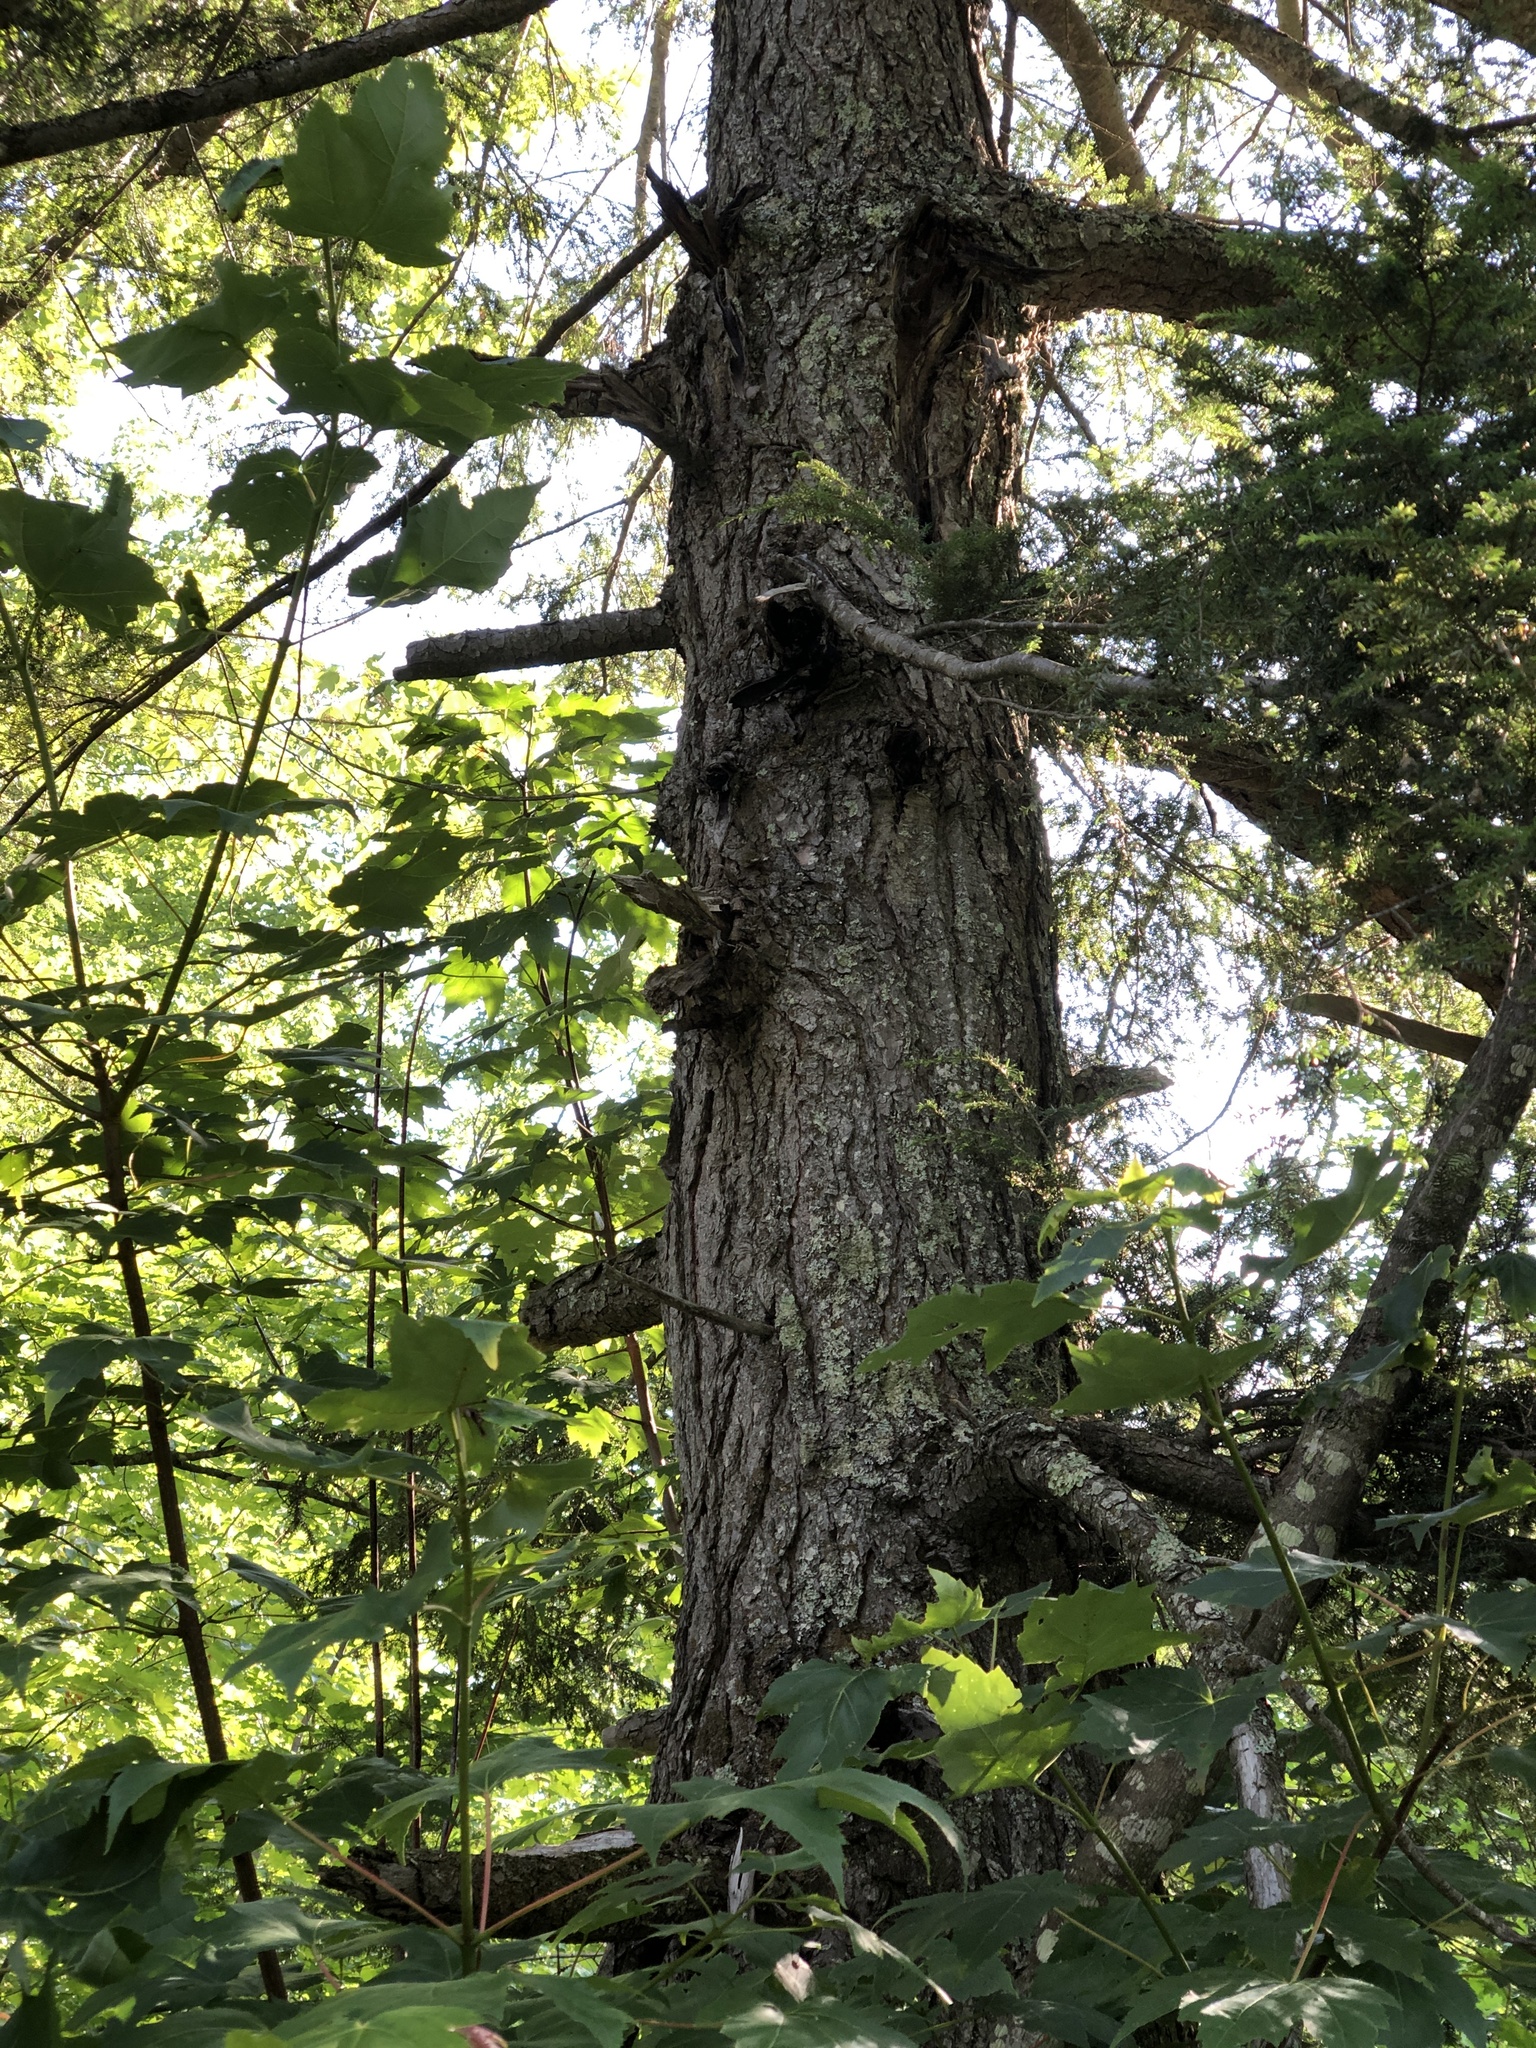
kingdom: Plantae
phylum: Tracheophyta
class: Pinopsida
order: Pinales
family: Pinaceae
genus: Tsuga
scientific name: Tsuga canadensis
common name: Eastern hemlock
